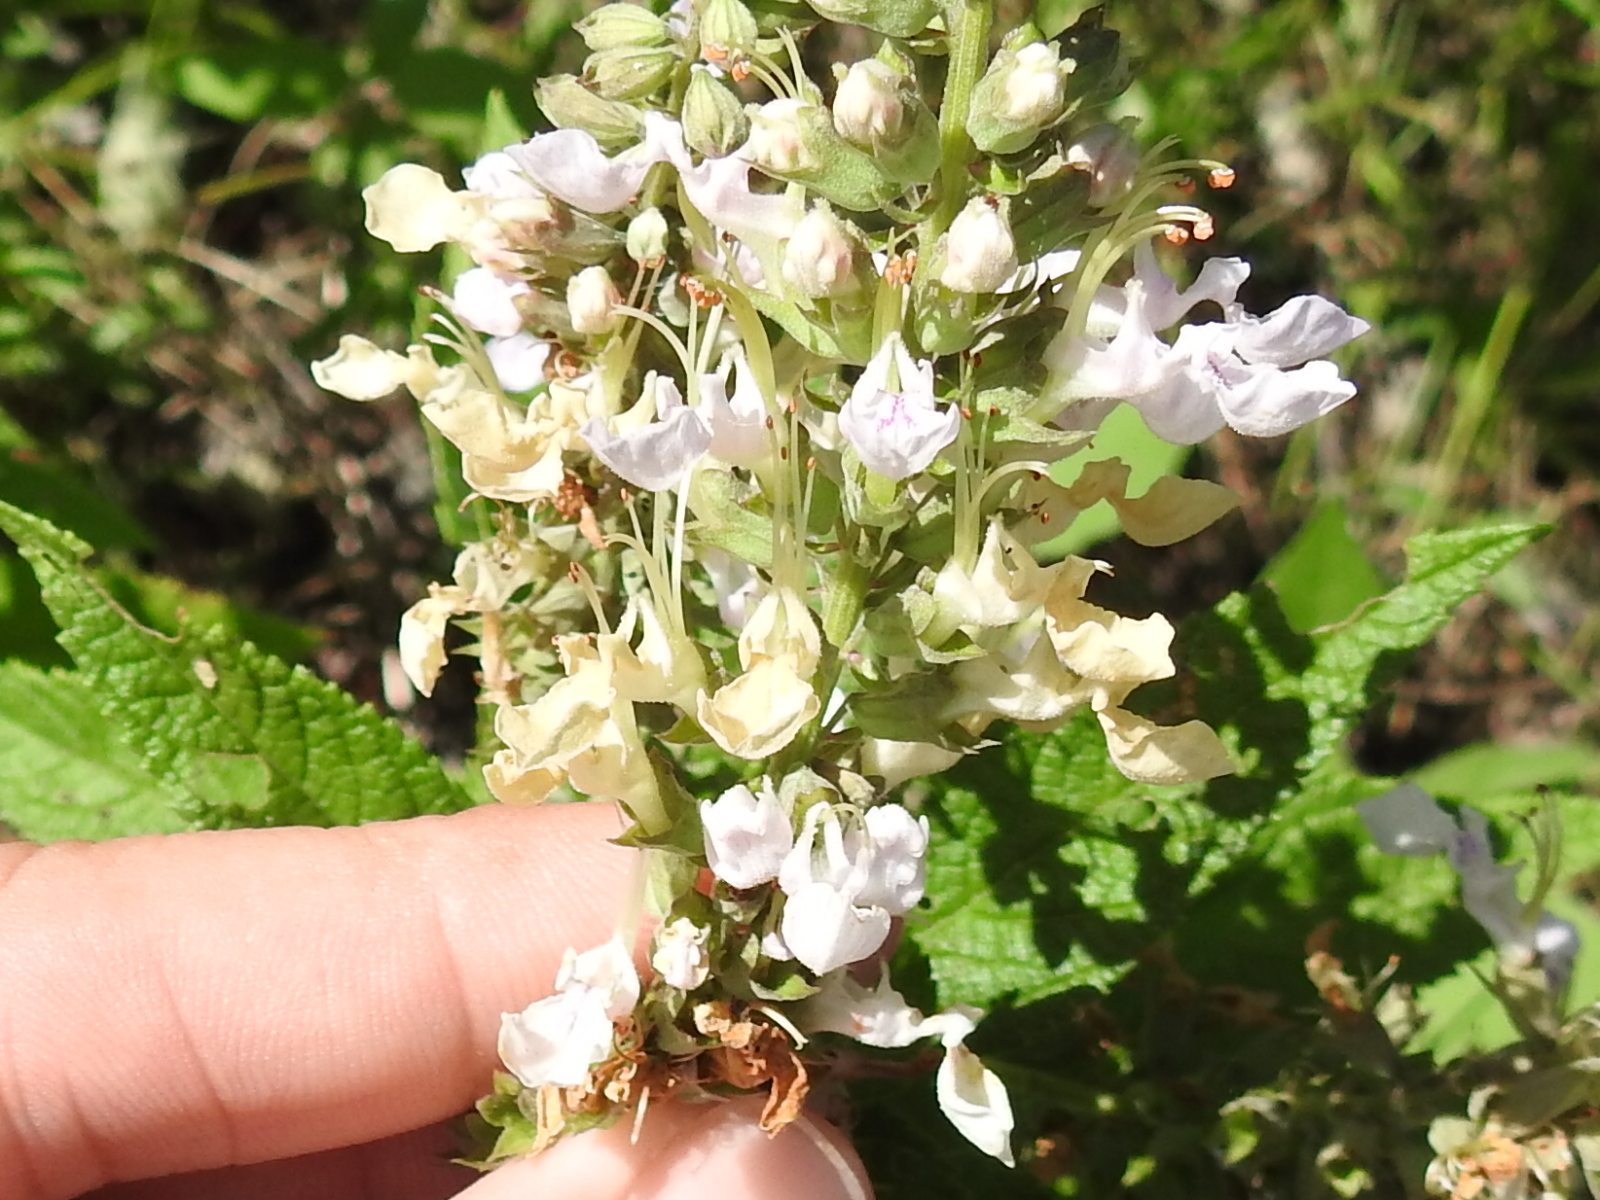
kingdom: Plantae
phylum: Tracheophyta
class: Magnoliopsida
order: Lamiales
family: Lamiaceae
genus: Teucrium
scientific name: Teucrium canadense
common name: American germander
